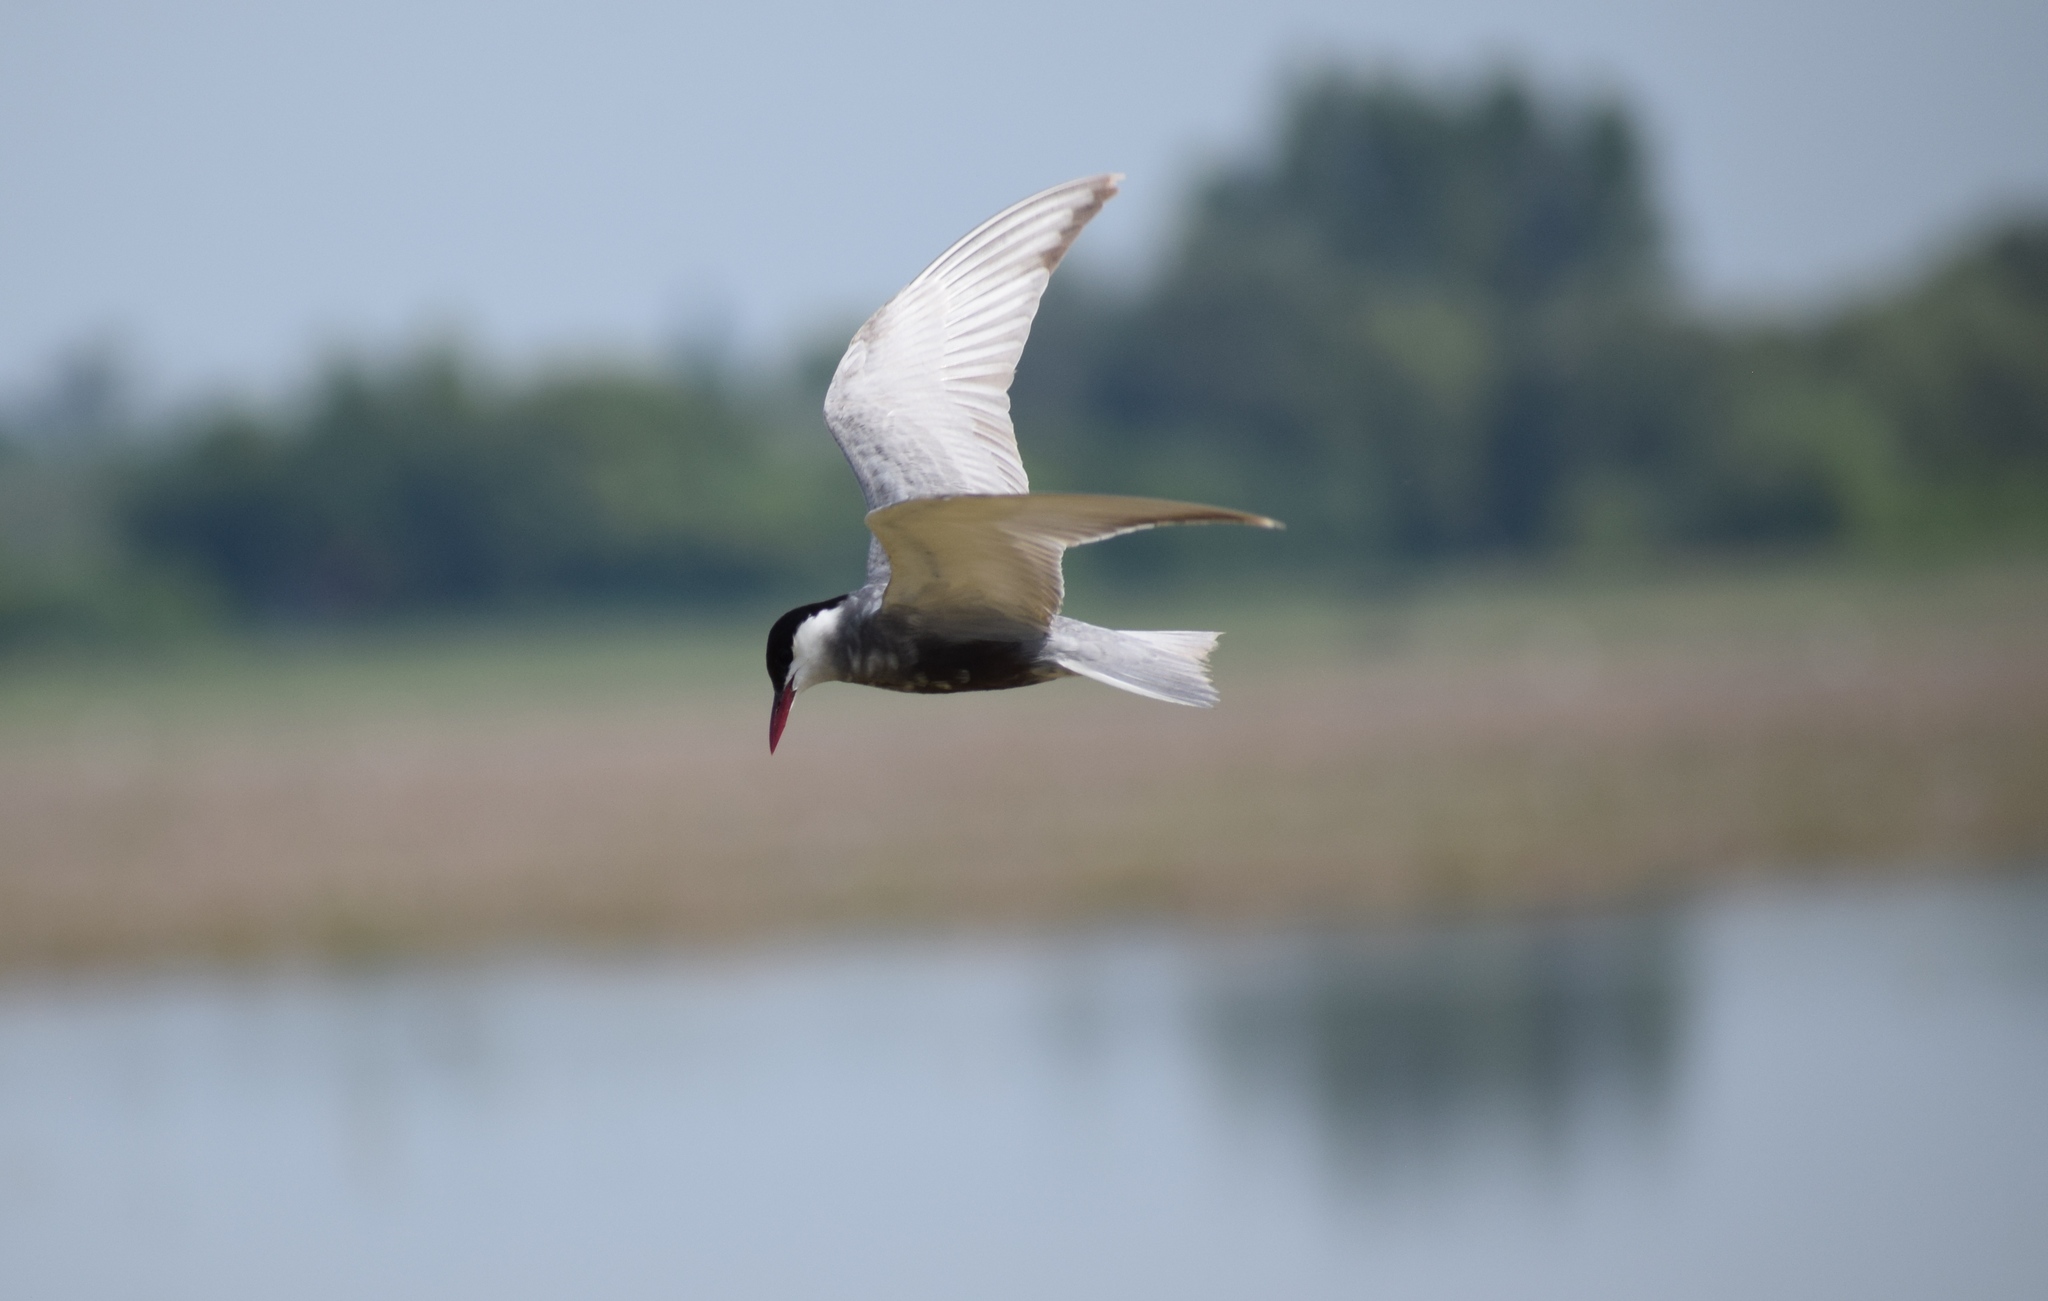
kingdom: Animalia
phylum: Chordata
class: Aves
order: Charadriiformes
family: Laridae
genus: Chlidonias
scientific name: Chlidonias hybrida
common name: Whiskered tern
